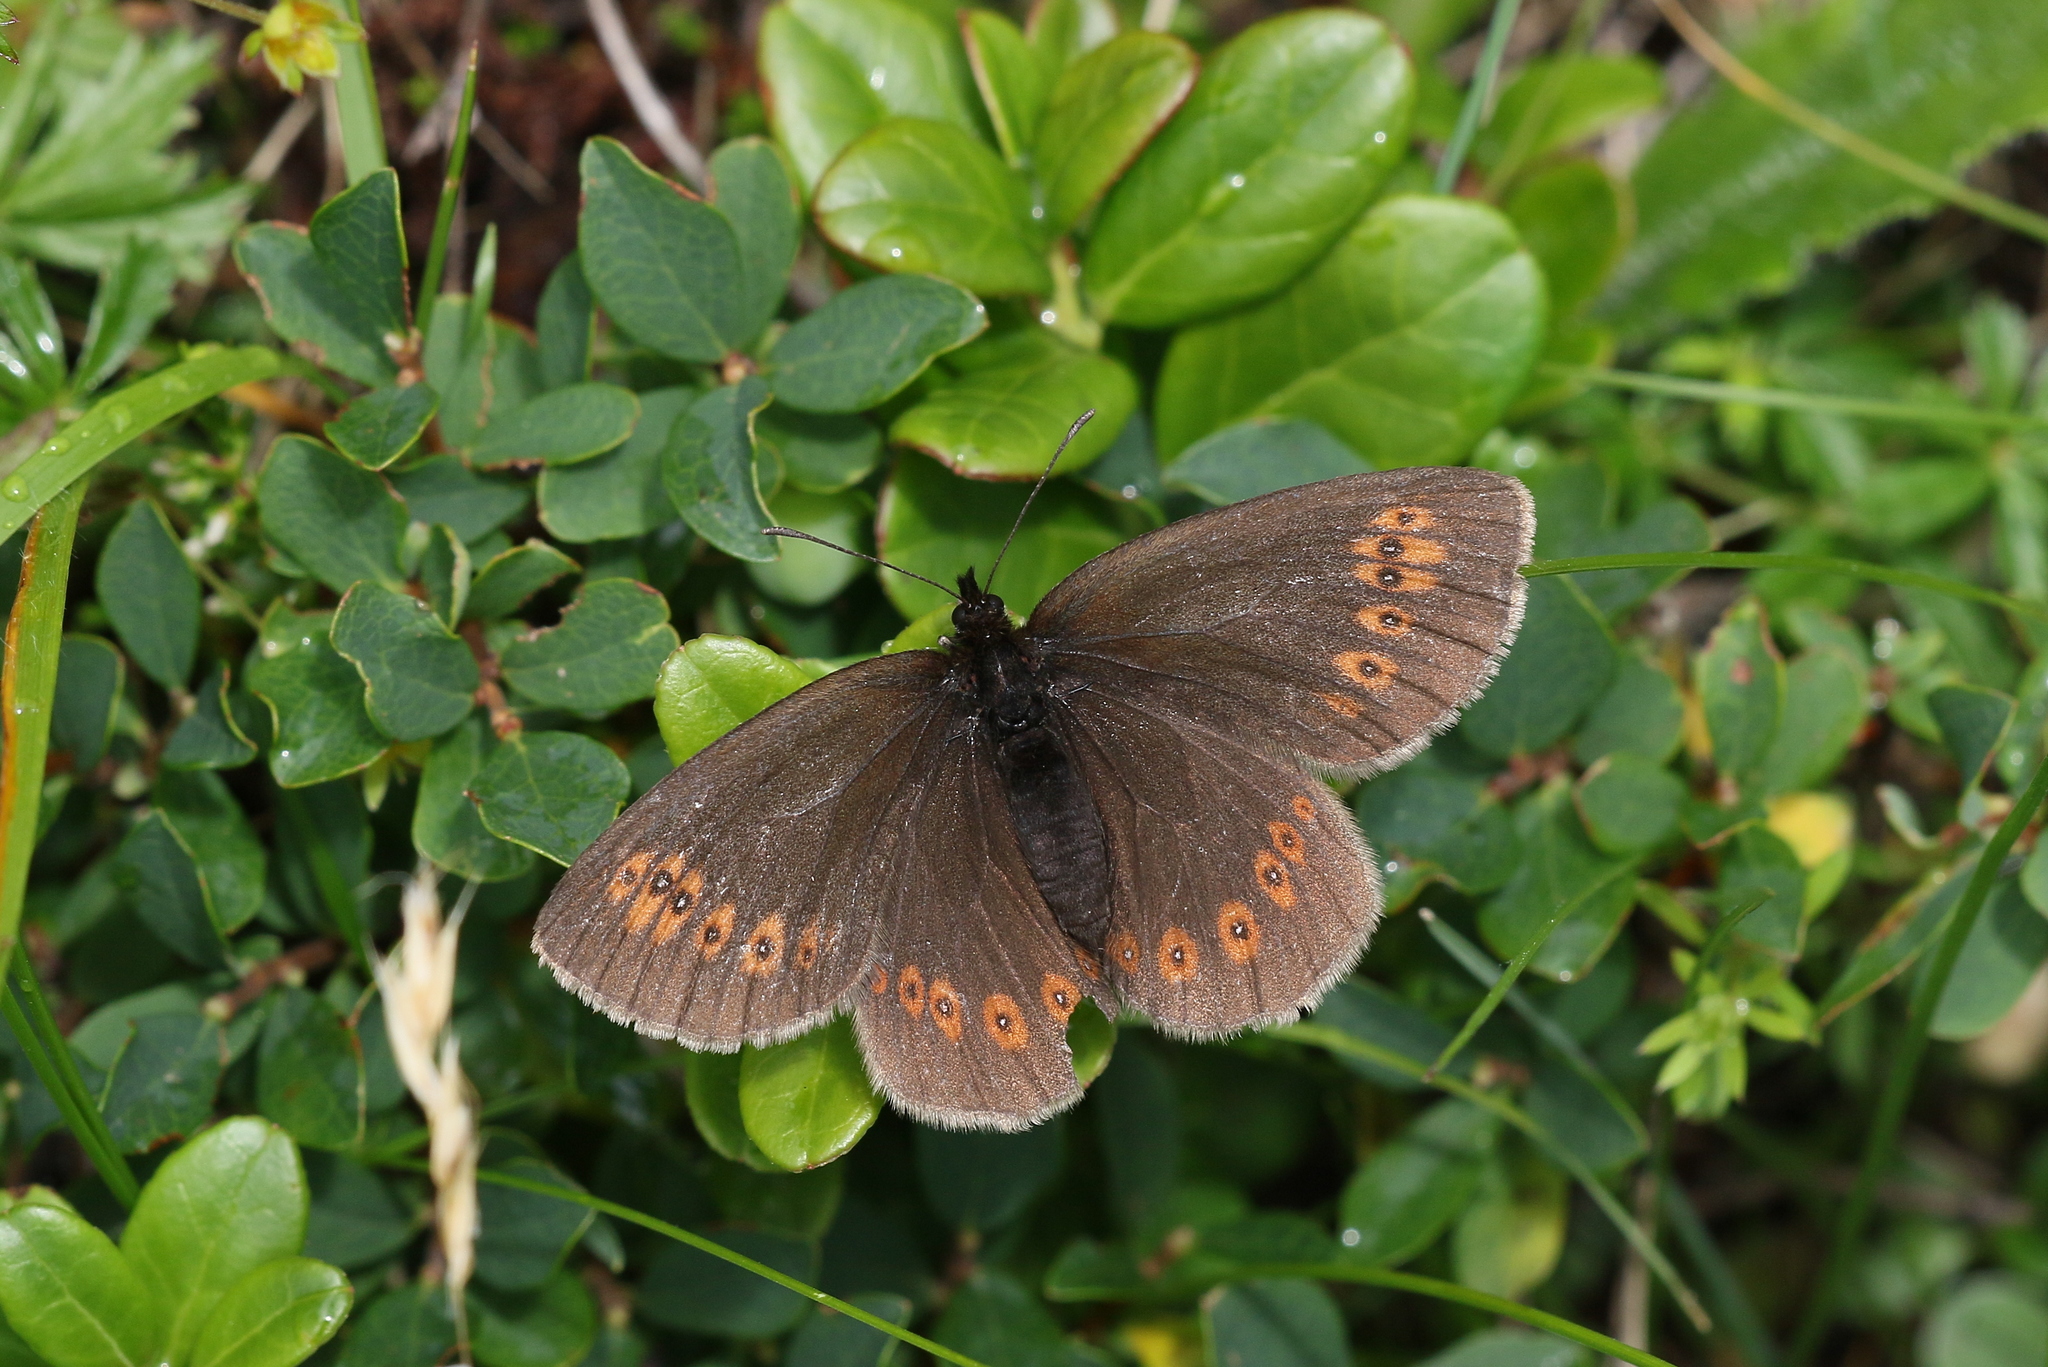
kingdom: Animalia
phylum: Arthropoda
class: Insecta
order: Lepidoptera
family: Nymphalidae
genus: Erebia
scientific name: Erebia alberganus
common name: Almond-eyed ringlet
